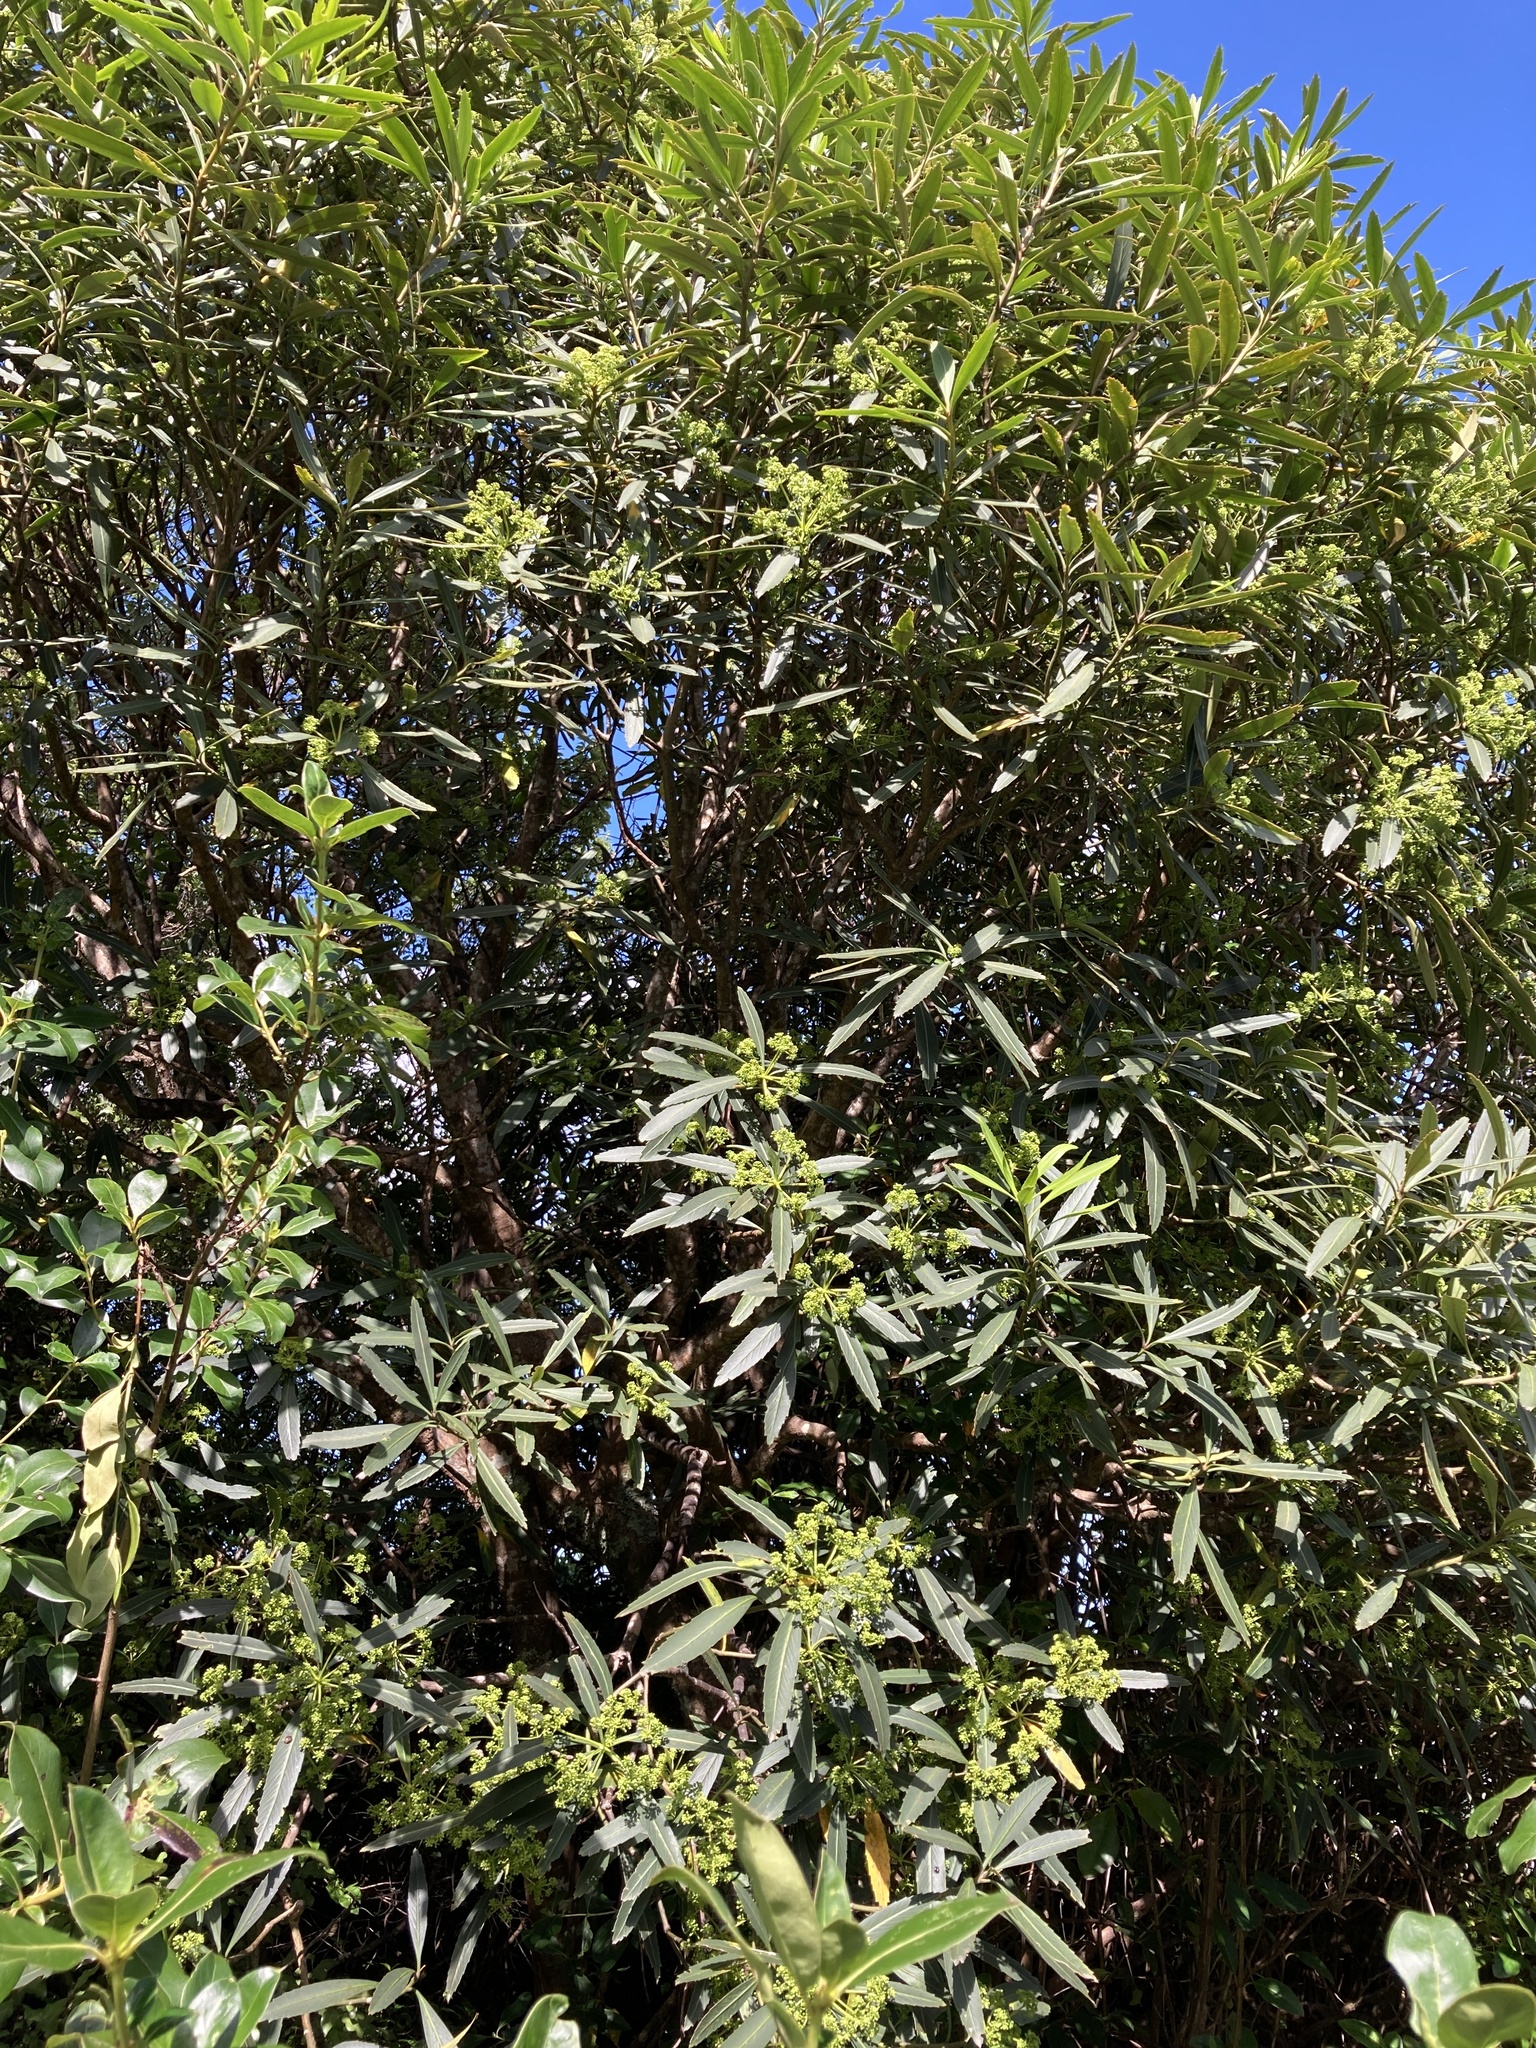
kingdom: Plantae
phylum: Tracheophyta
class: Magnoliopsida
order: Apiales
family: Araliaceae
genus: Pseudopanax
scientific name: Pseudopanax crassifolius
